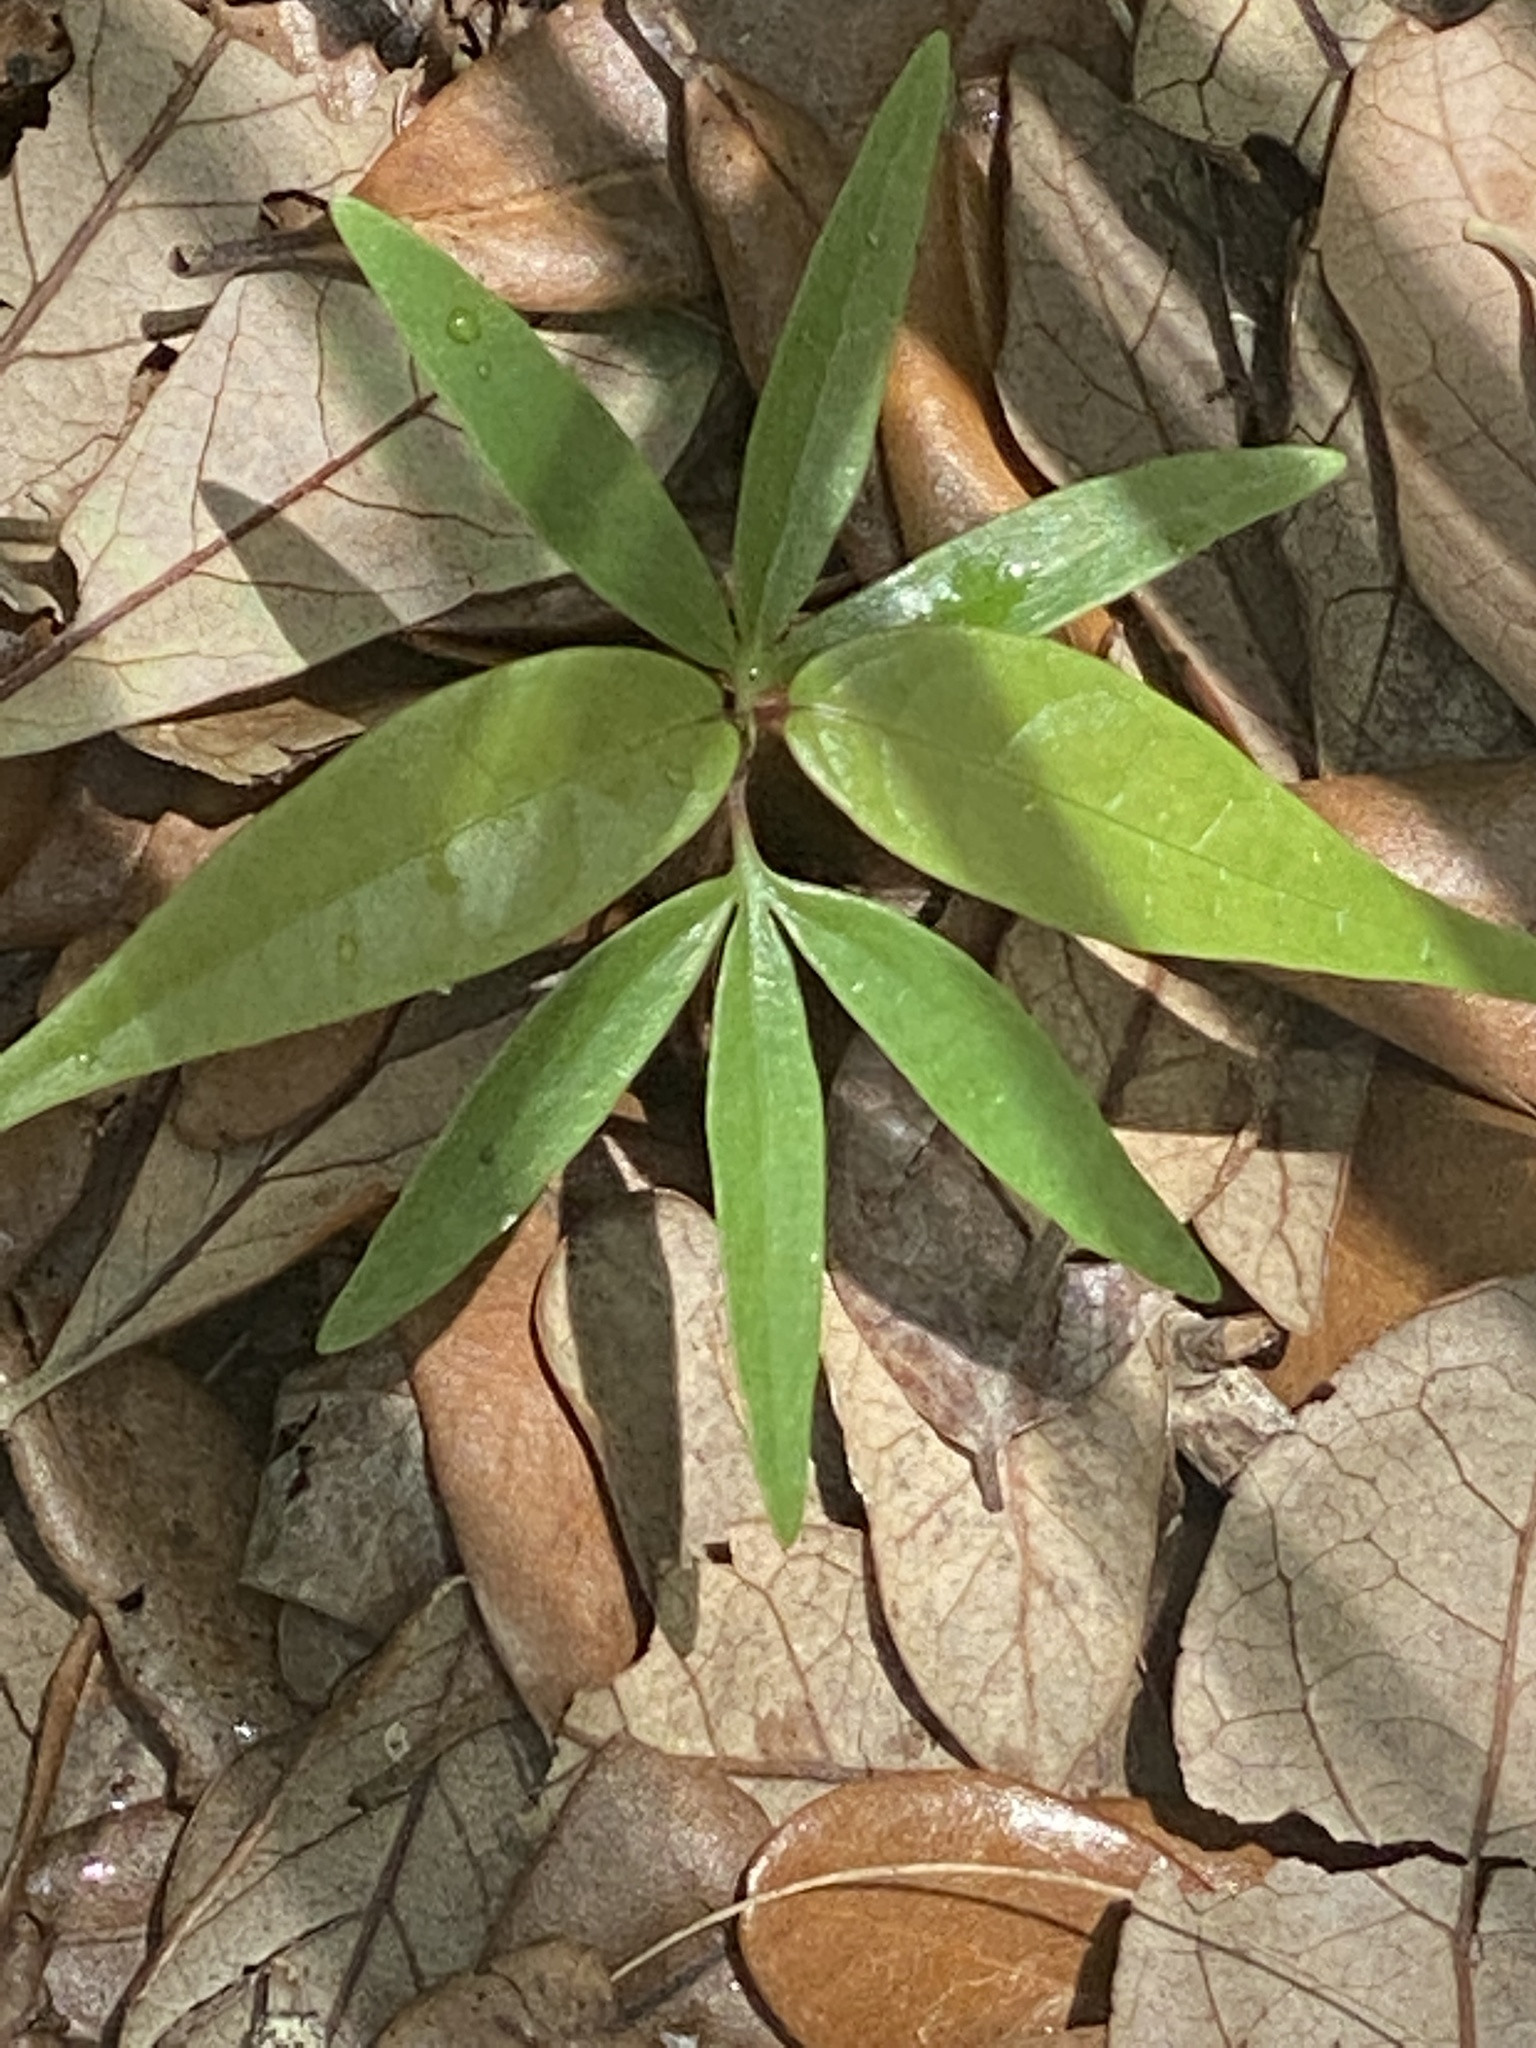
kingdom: Plantae
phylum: Tracheophyta
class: Magnoliopsida
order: Vitales
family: Vitaceae
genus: Parthenocissus
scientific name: Parthenocissus quinquefolia
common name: Virginia-creeper
